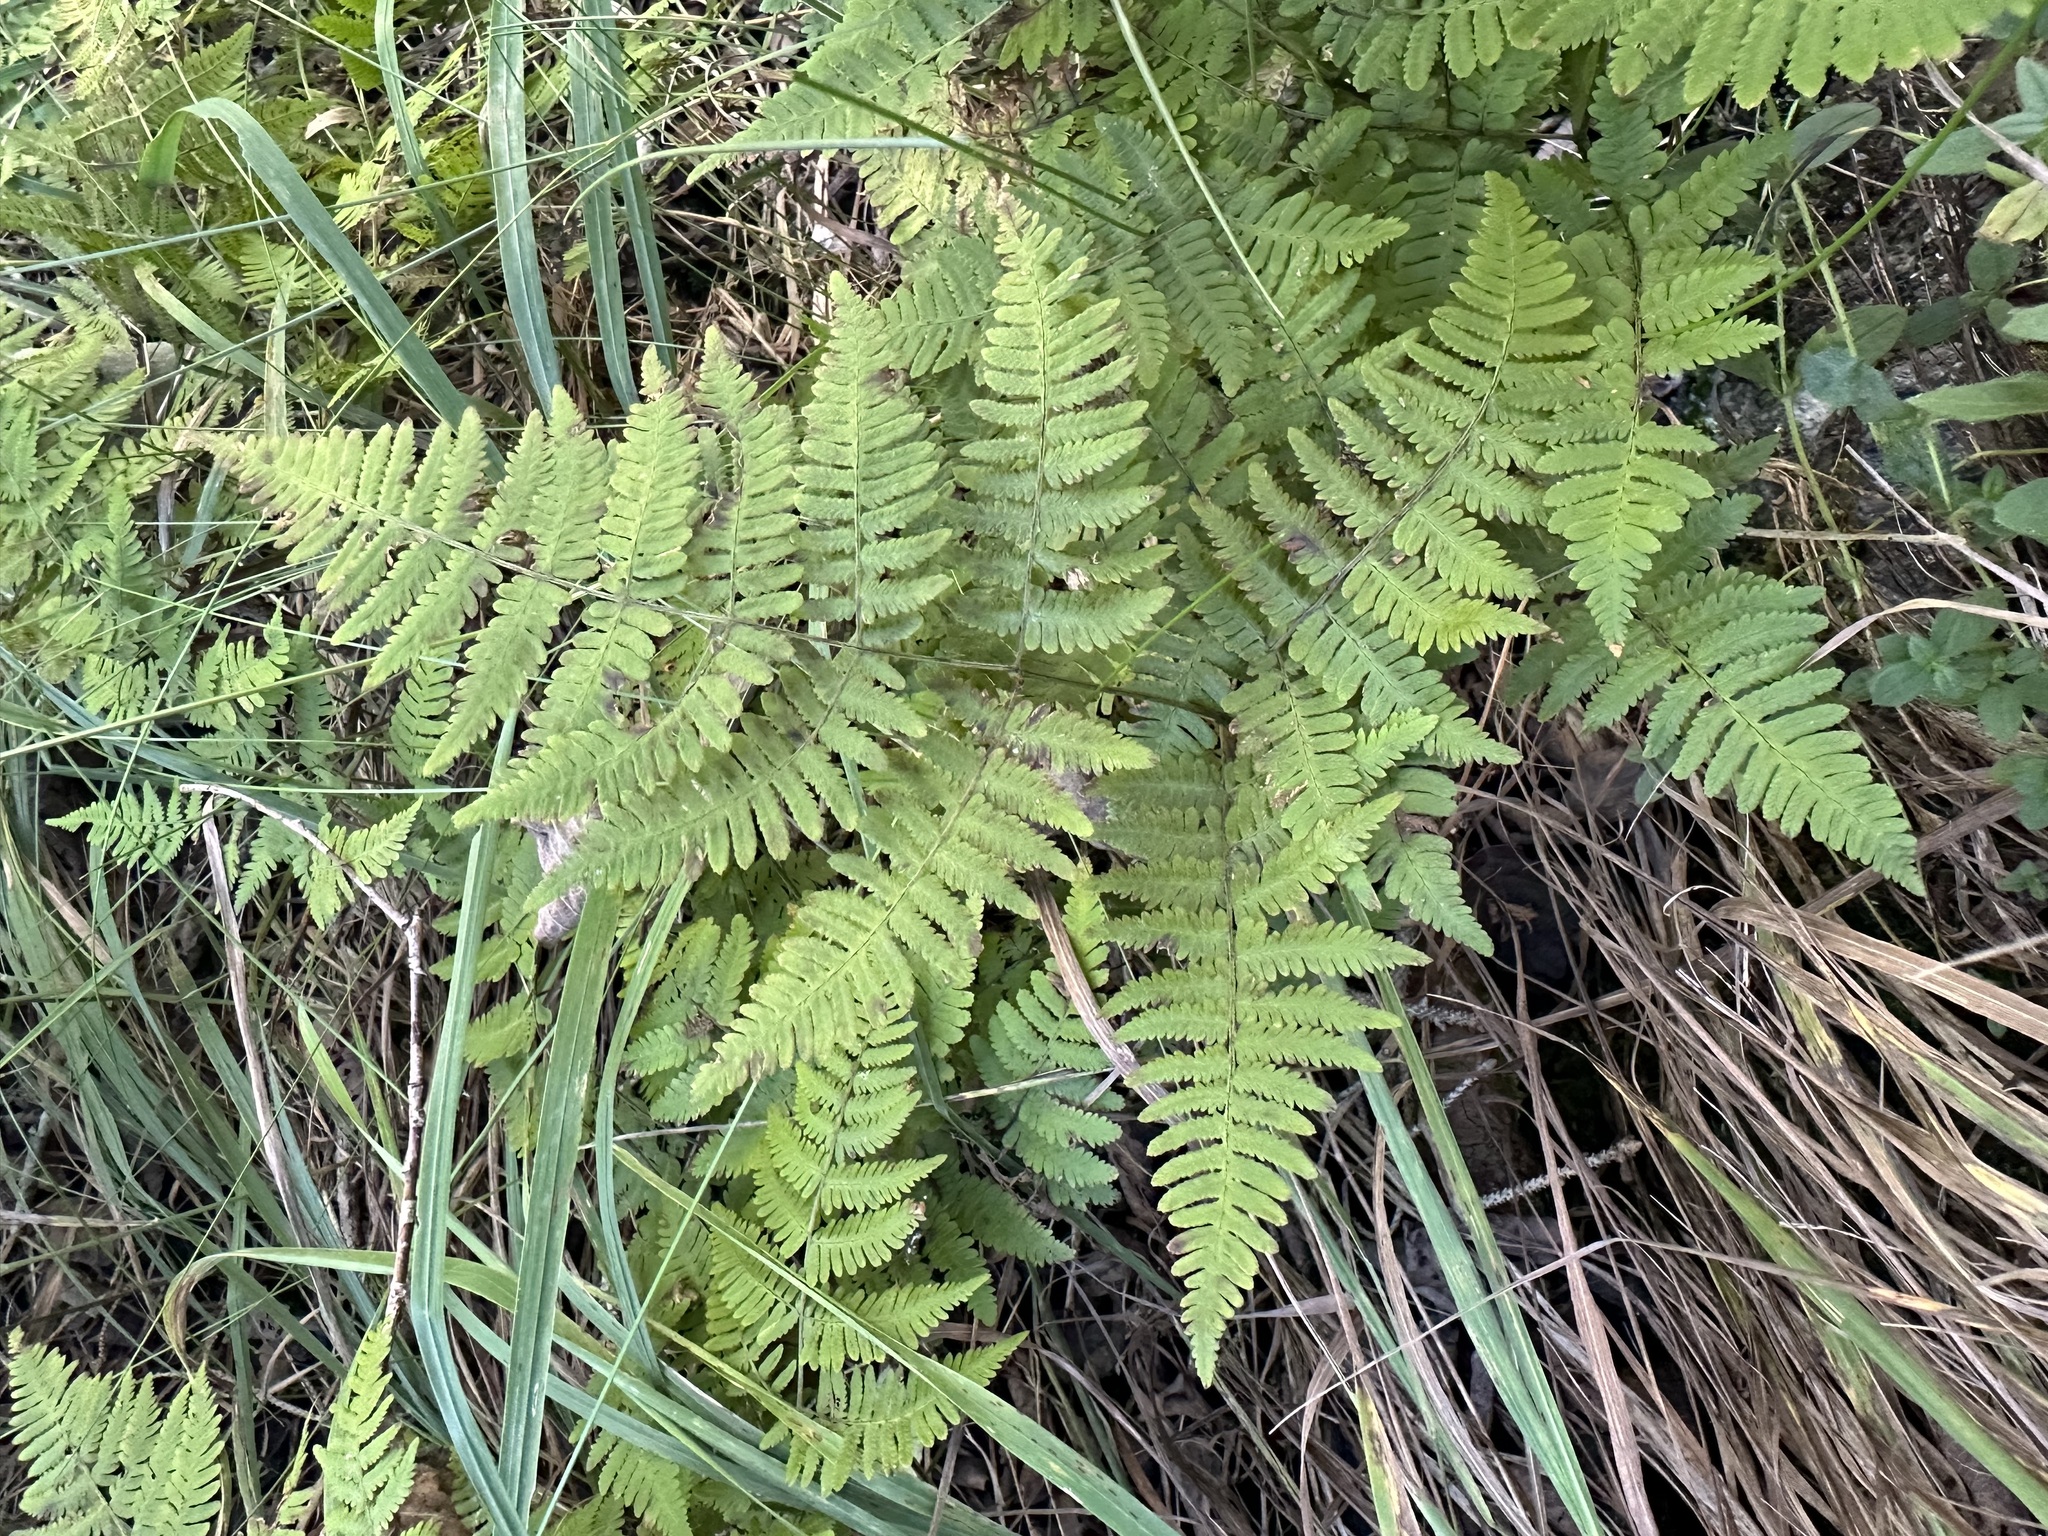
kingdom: Plantae
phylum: Tracheophyta
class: Polypodiopsida
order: Polypodiales
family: Cystopteridaceae
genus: Gymnocarpium
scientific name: Gymnocarpium robertianum
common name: Limestone fern
